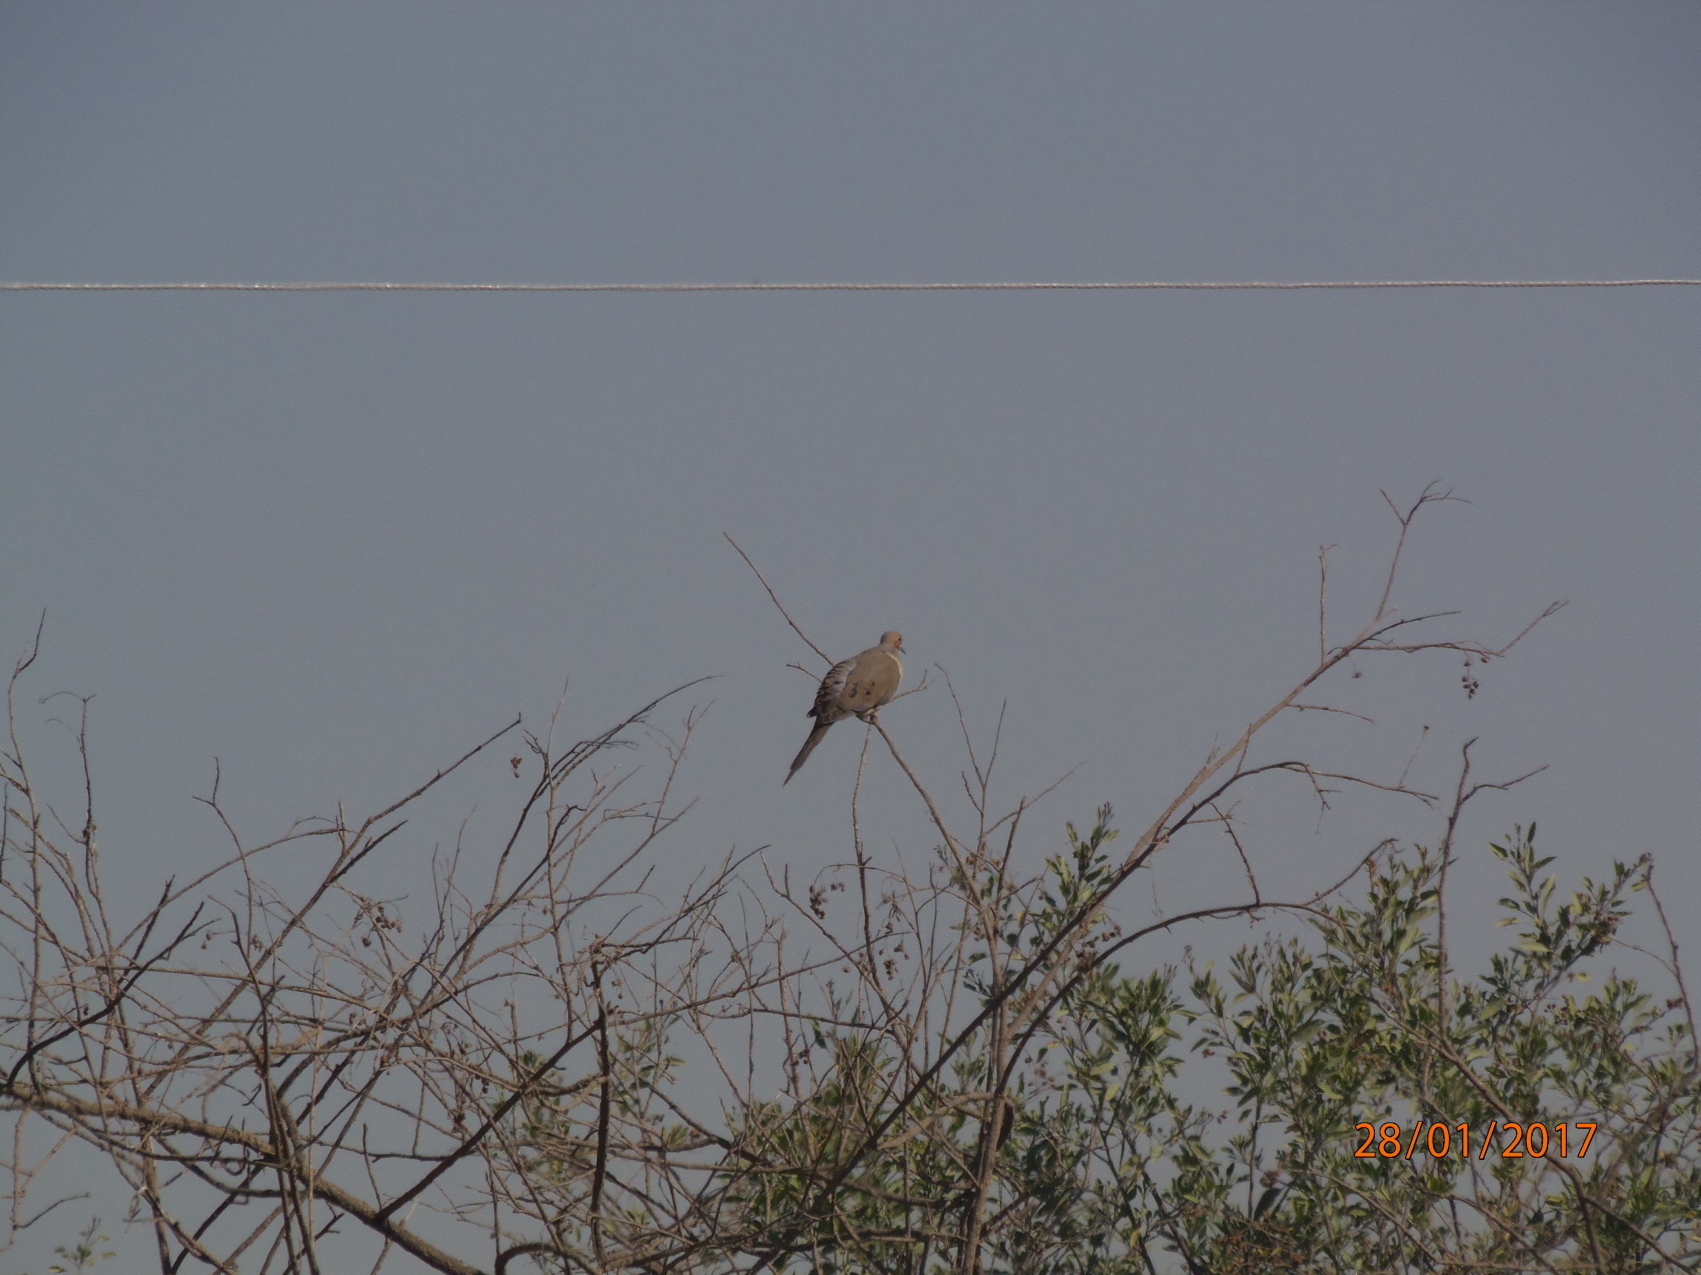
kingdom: Animalia
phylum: Chordata
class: Aves
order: Columbiformes
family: Columbidae
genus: Zenaida
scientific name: Zenaida macroura
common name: Mourning dove
